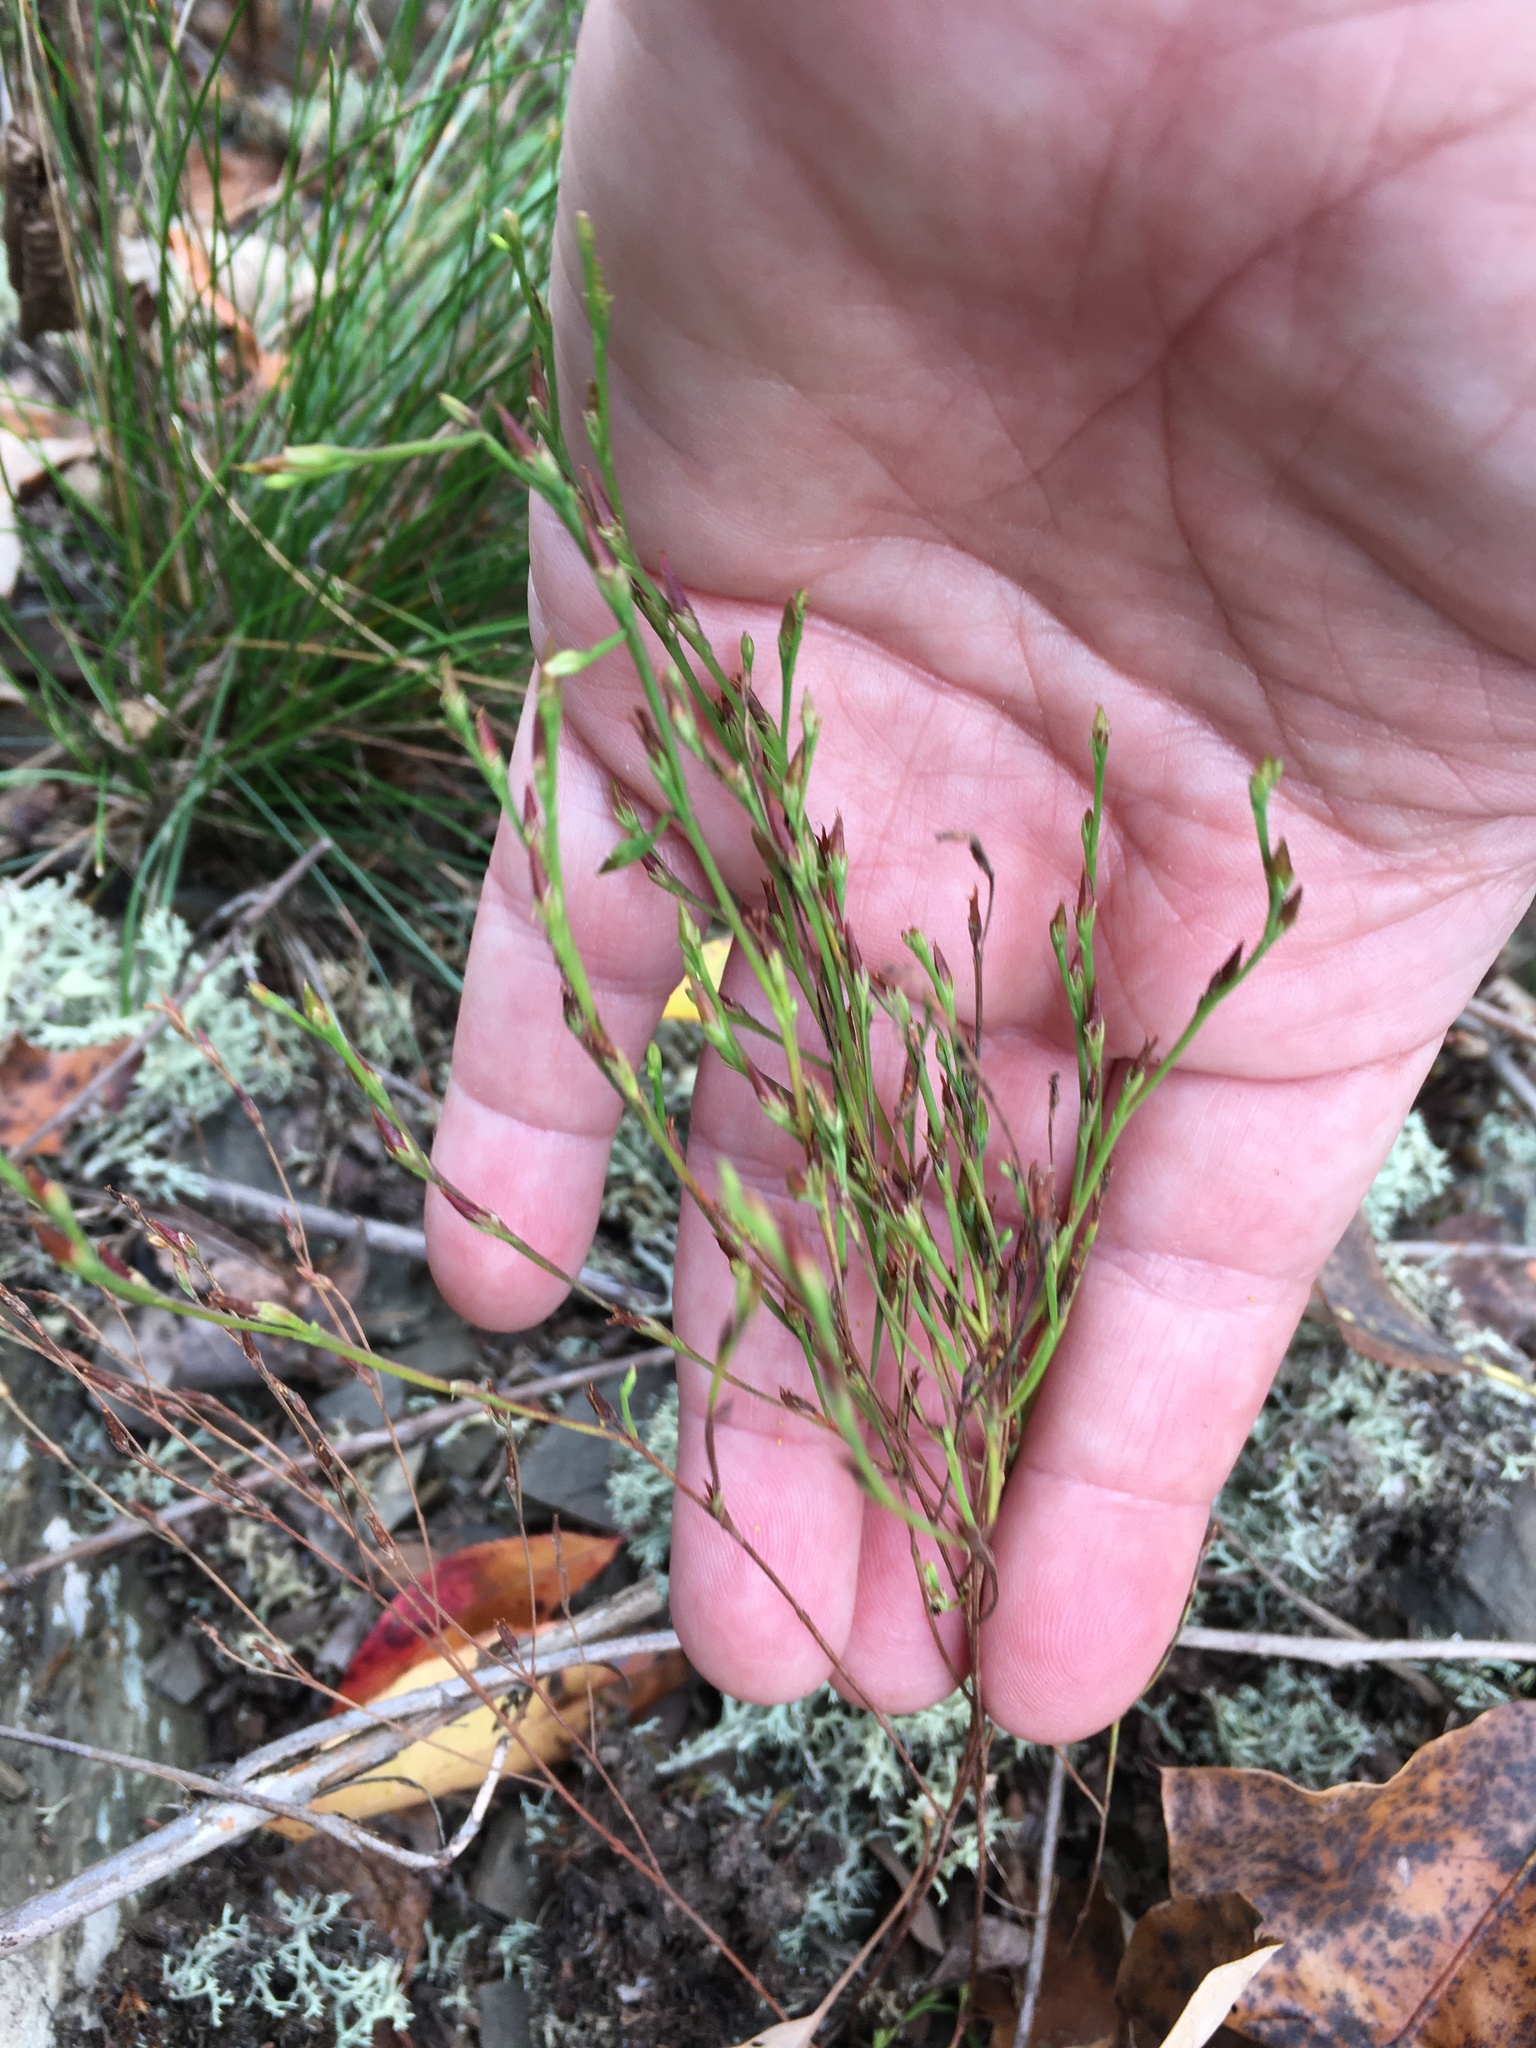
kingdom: Plantae
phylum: Tracheophyta
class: Magnoliopsida
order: Malpighiales
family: Hypericaceae
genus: Hypericum
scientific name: Hypericum gentianoides
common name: Gentian-leaved st. john's-wort
